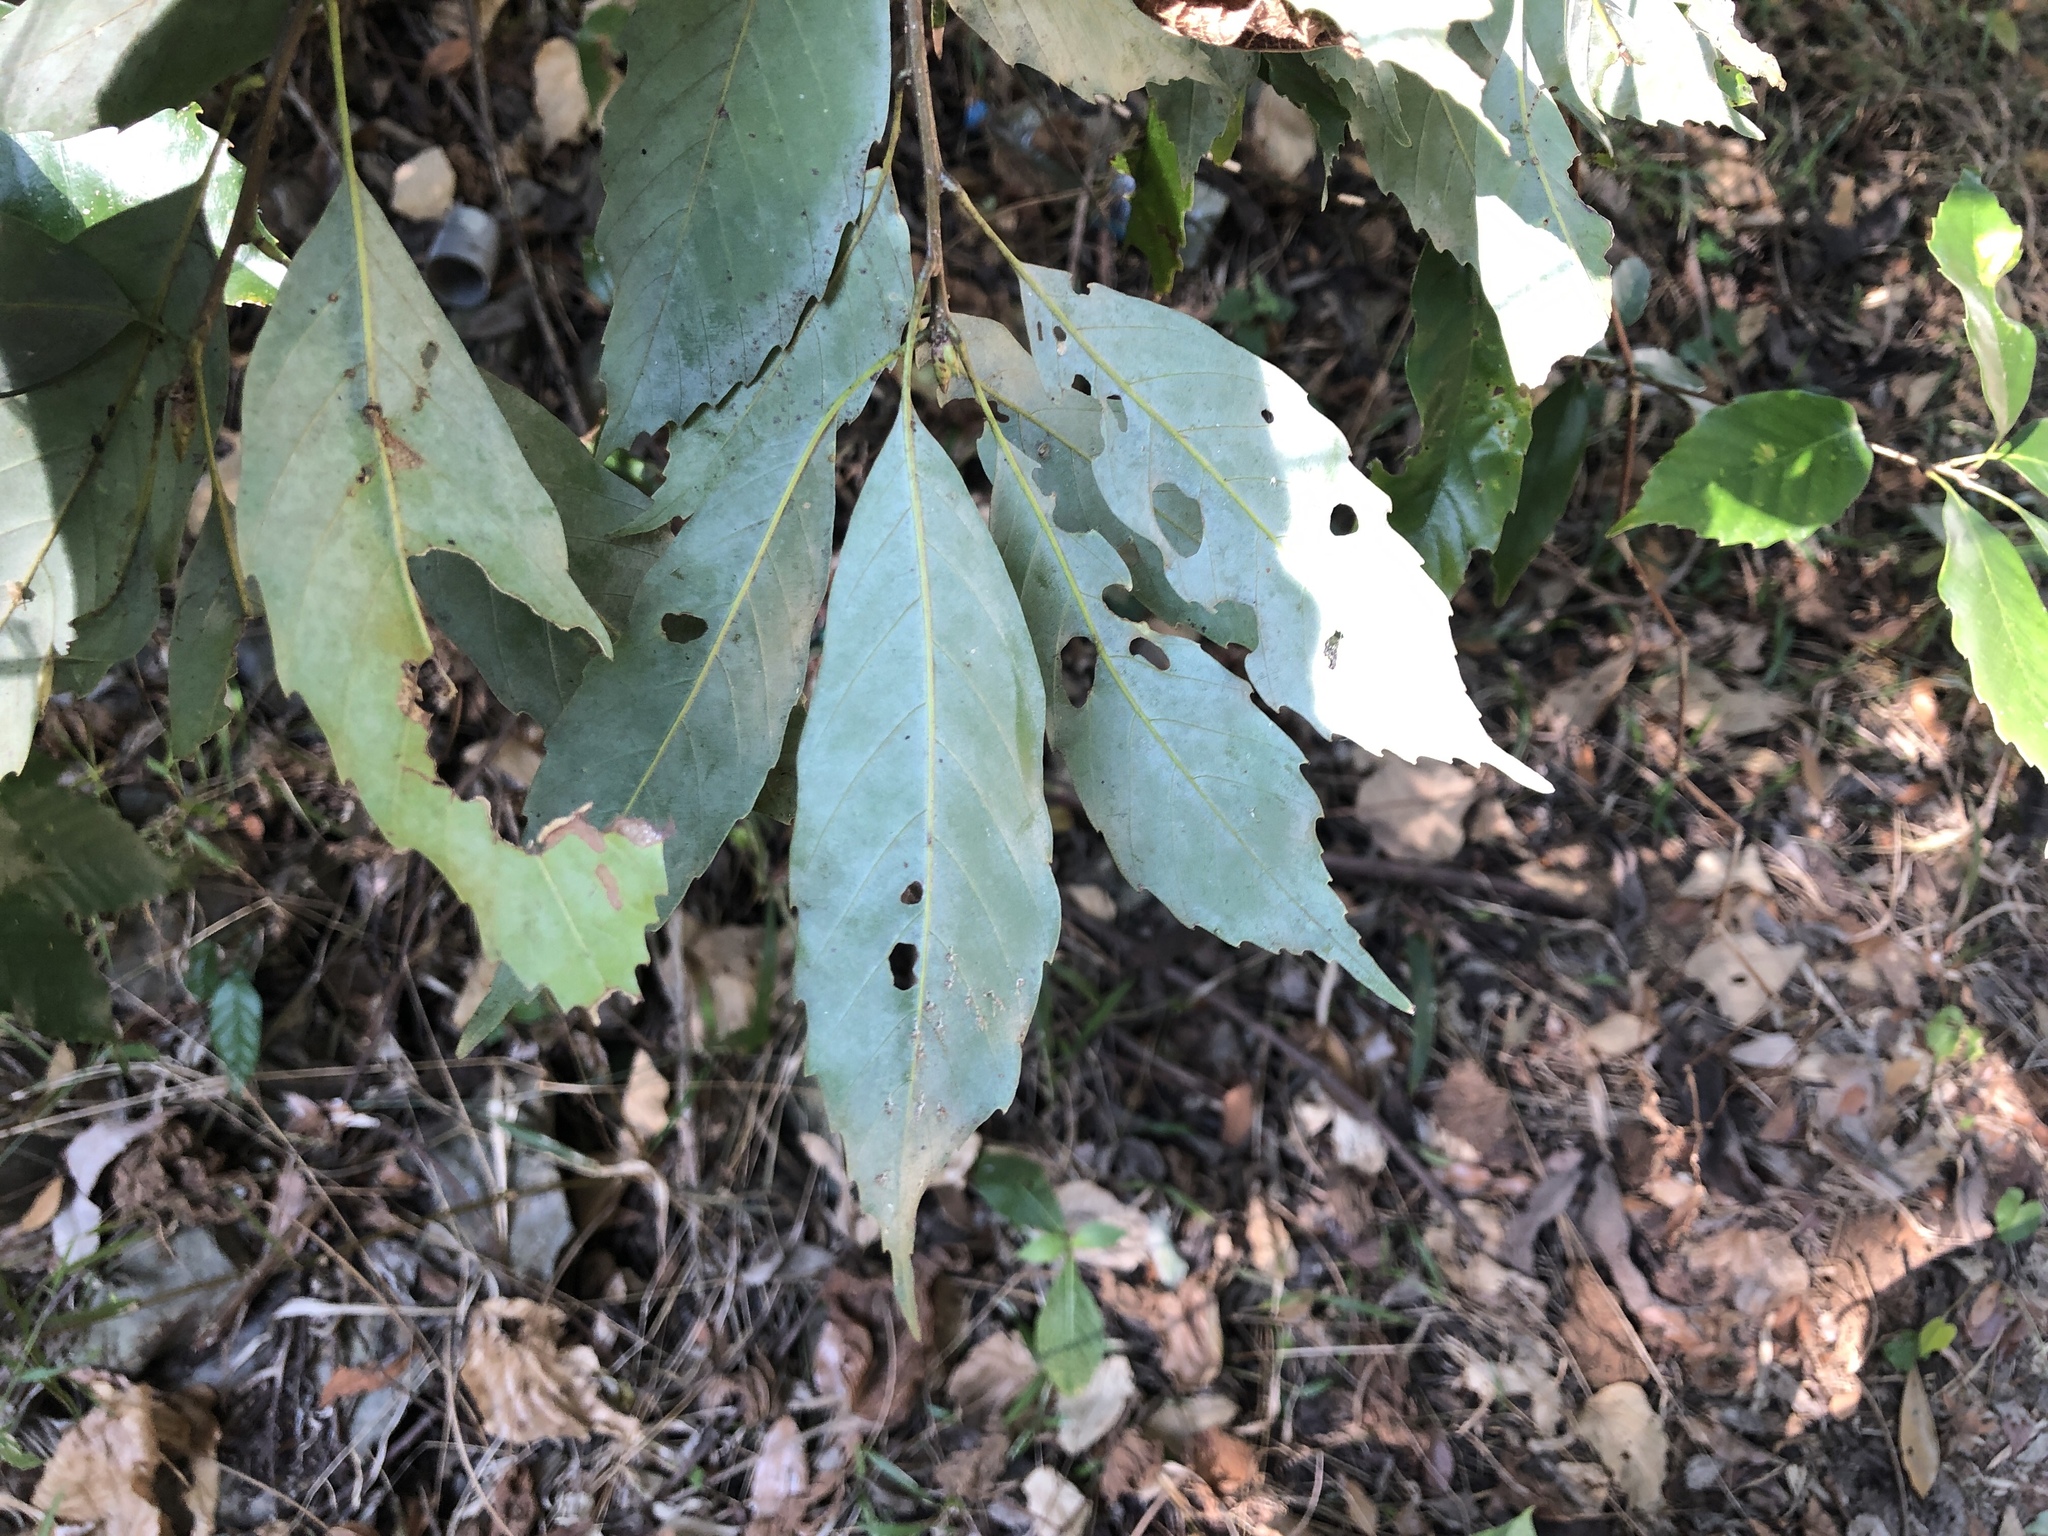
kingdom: Plantae
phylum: Tracheophyta
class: Magnoliopsida
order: Fagales
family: Fagaceae
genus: Quercus
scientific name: Quercus glauca
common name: Ring-cup oak
